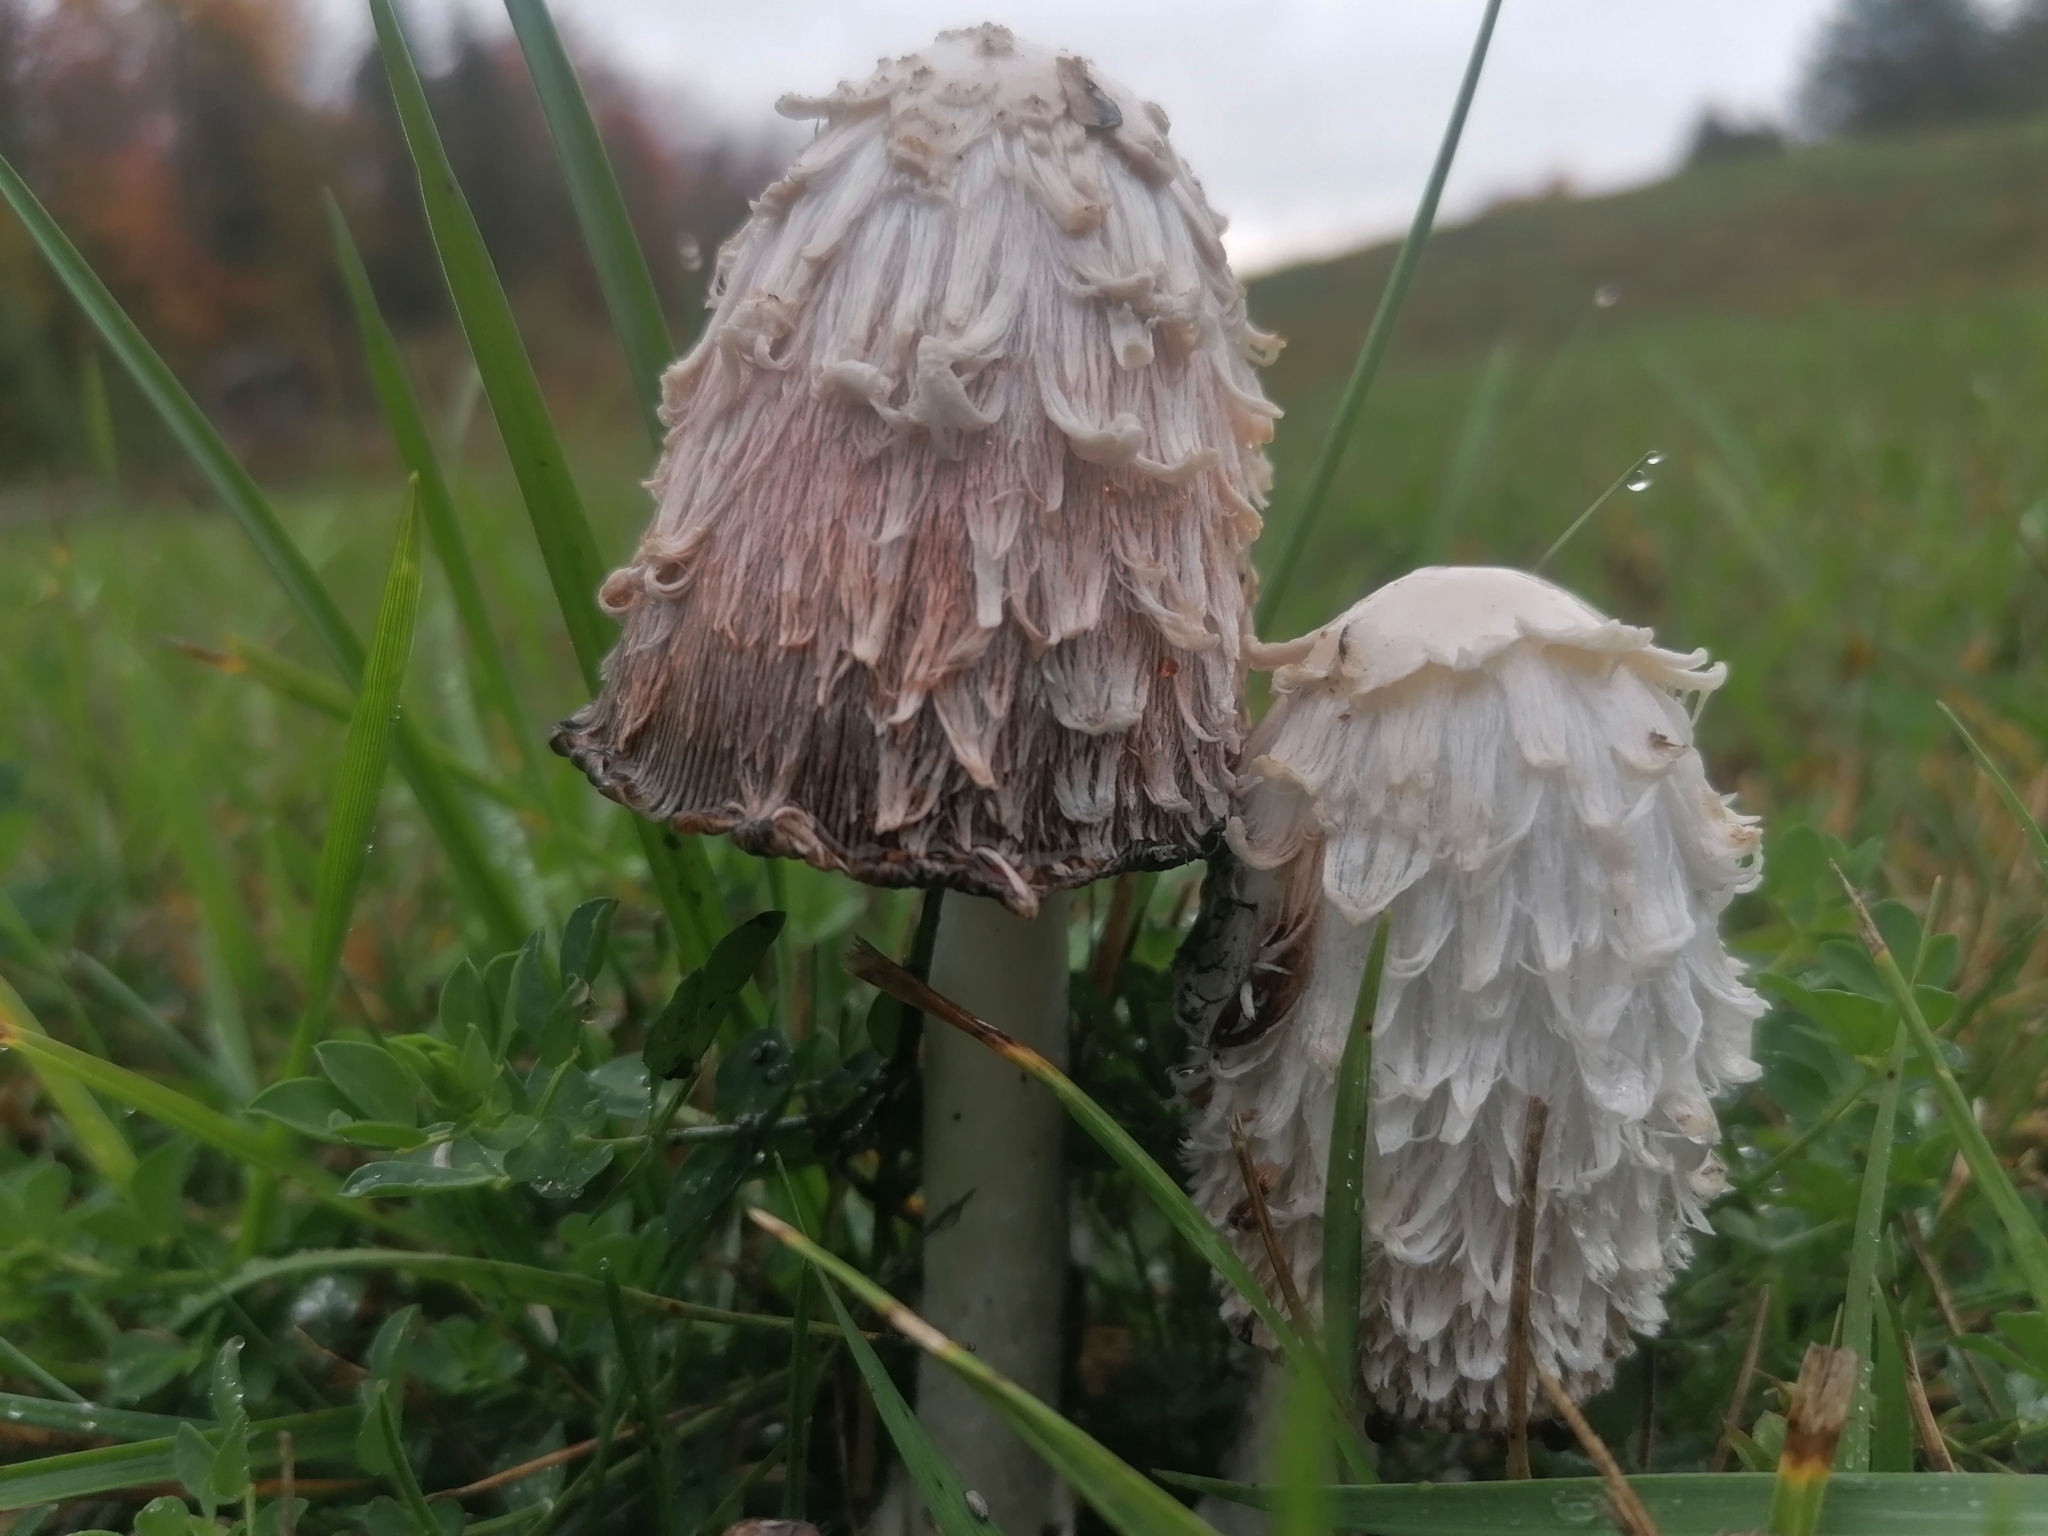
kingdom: Fungi
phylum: Basidiomycota
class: Agaricomycetes
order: Agaricales
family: Agaricaceae
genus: Coprinus
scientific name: Coprinus comatus
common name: Lawyer's wig
